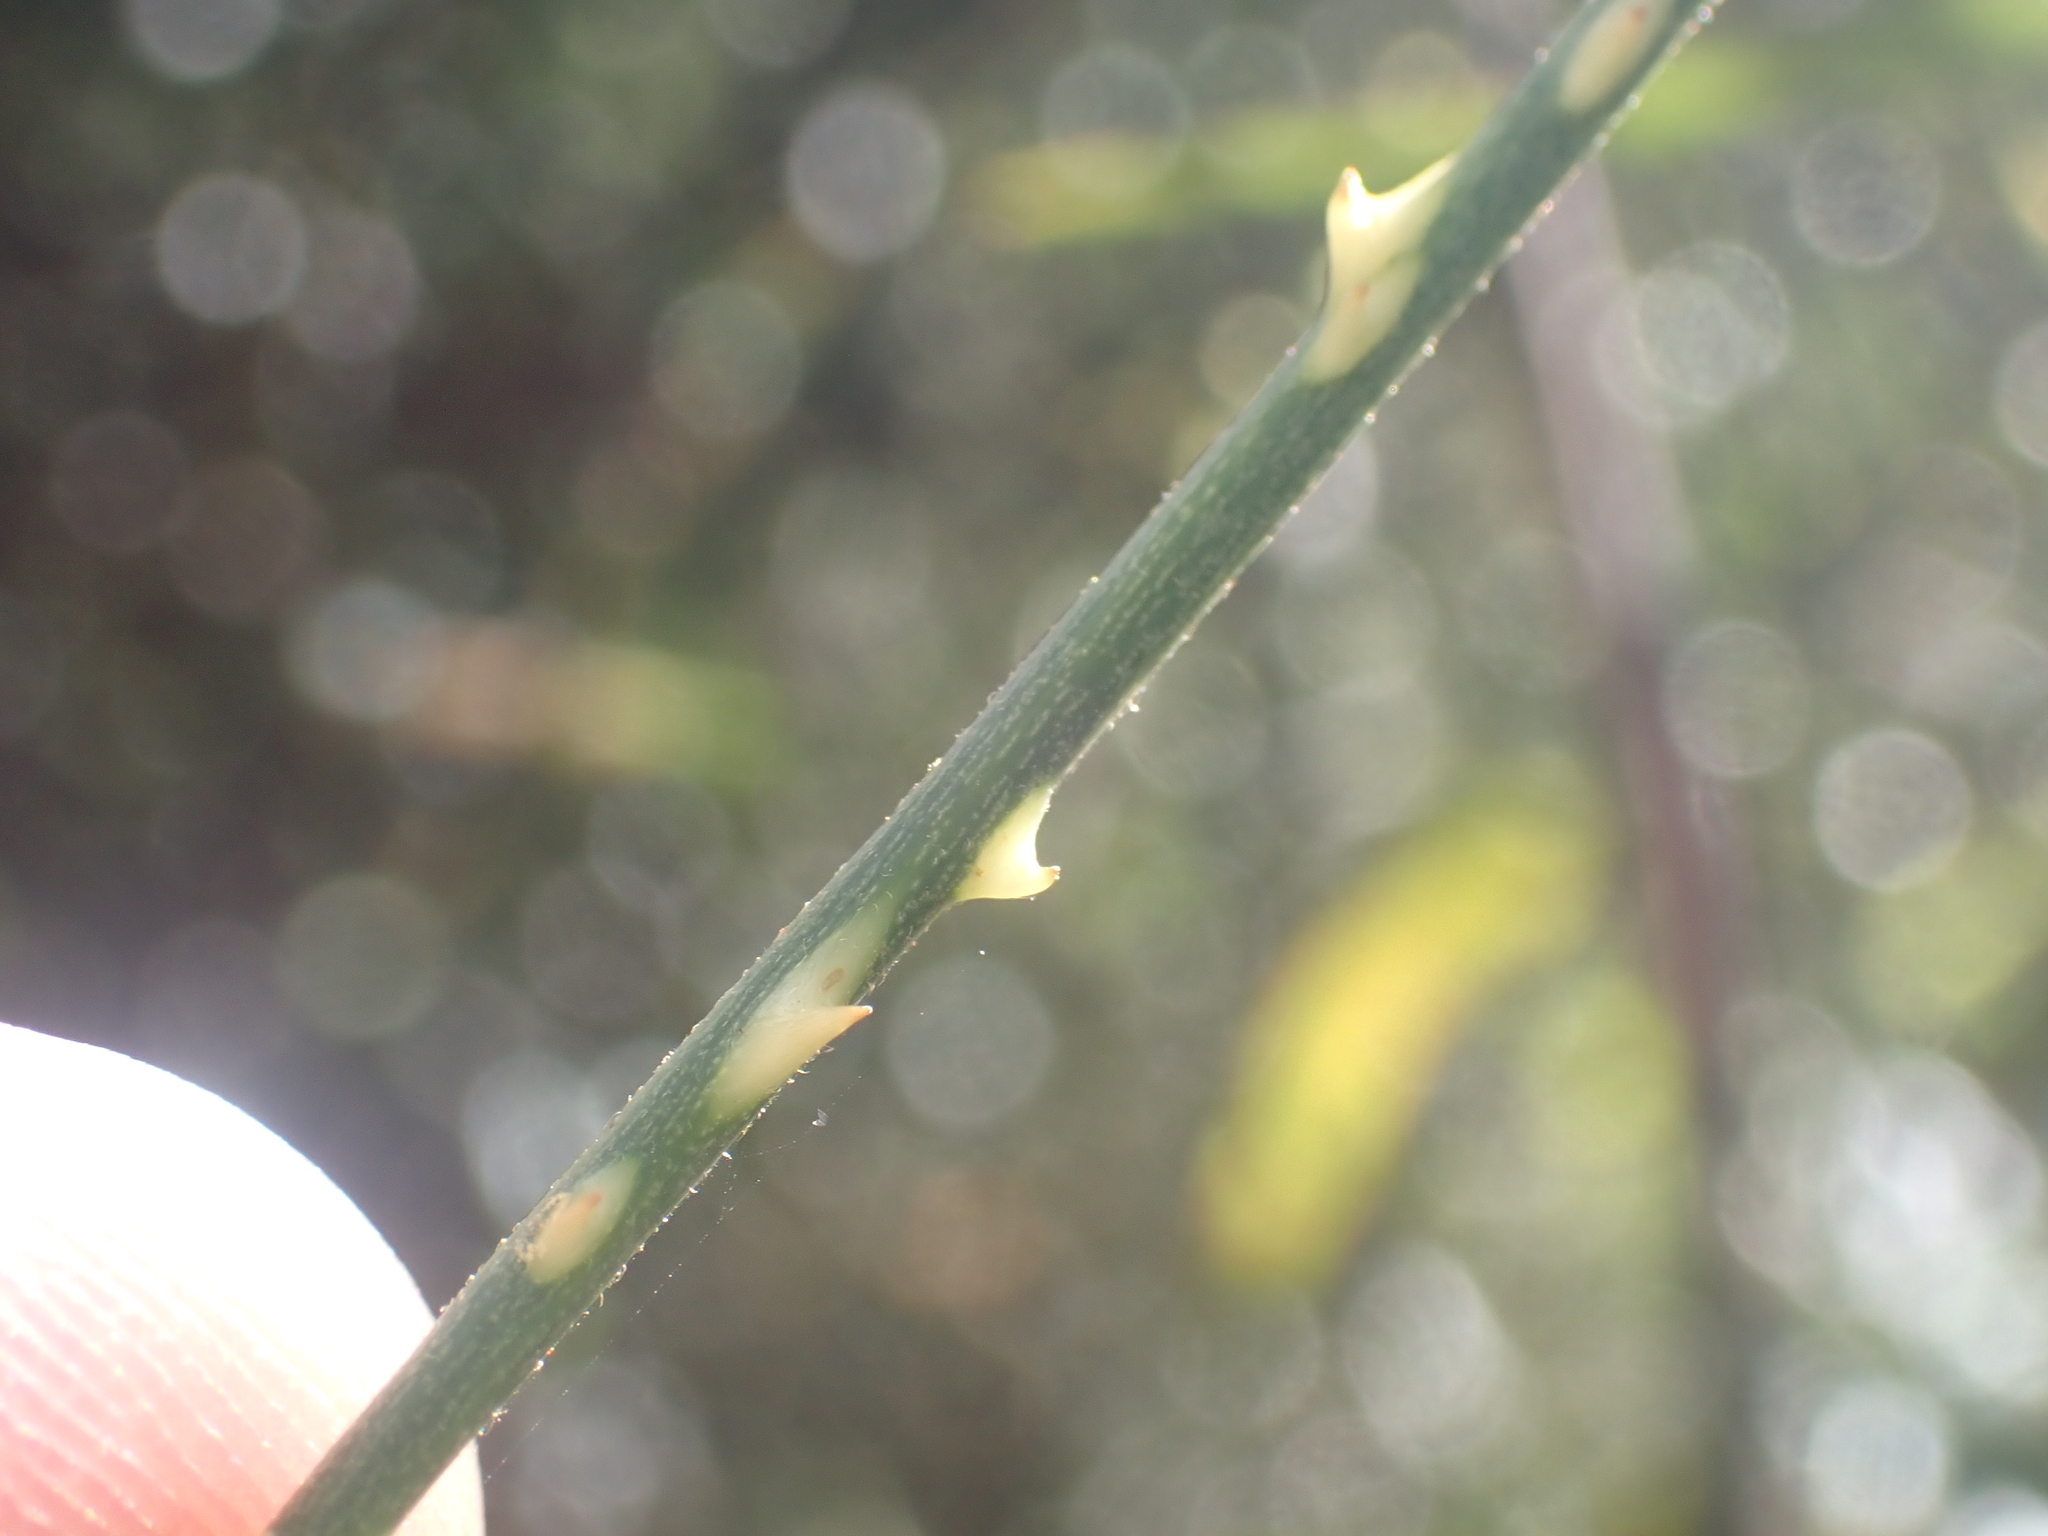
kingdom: Plantae
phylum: Tracheophyta
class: Magnoliopsida
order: Rosales
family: Rosaceae
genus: Rubus
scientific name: Rubus squarrosus
